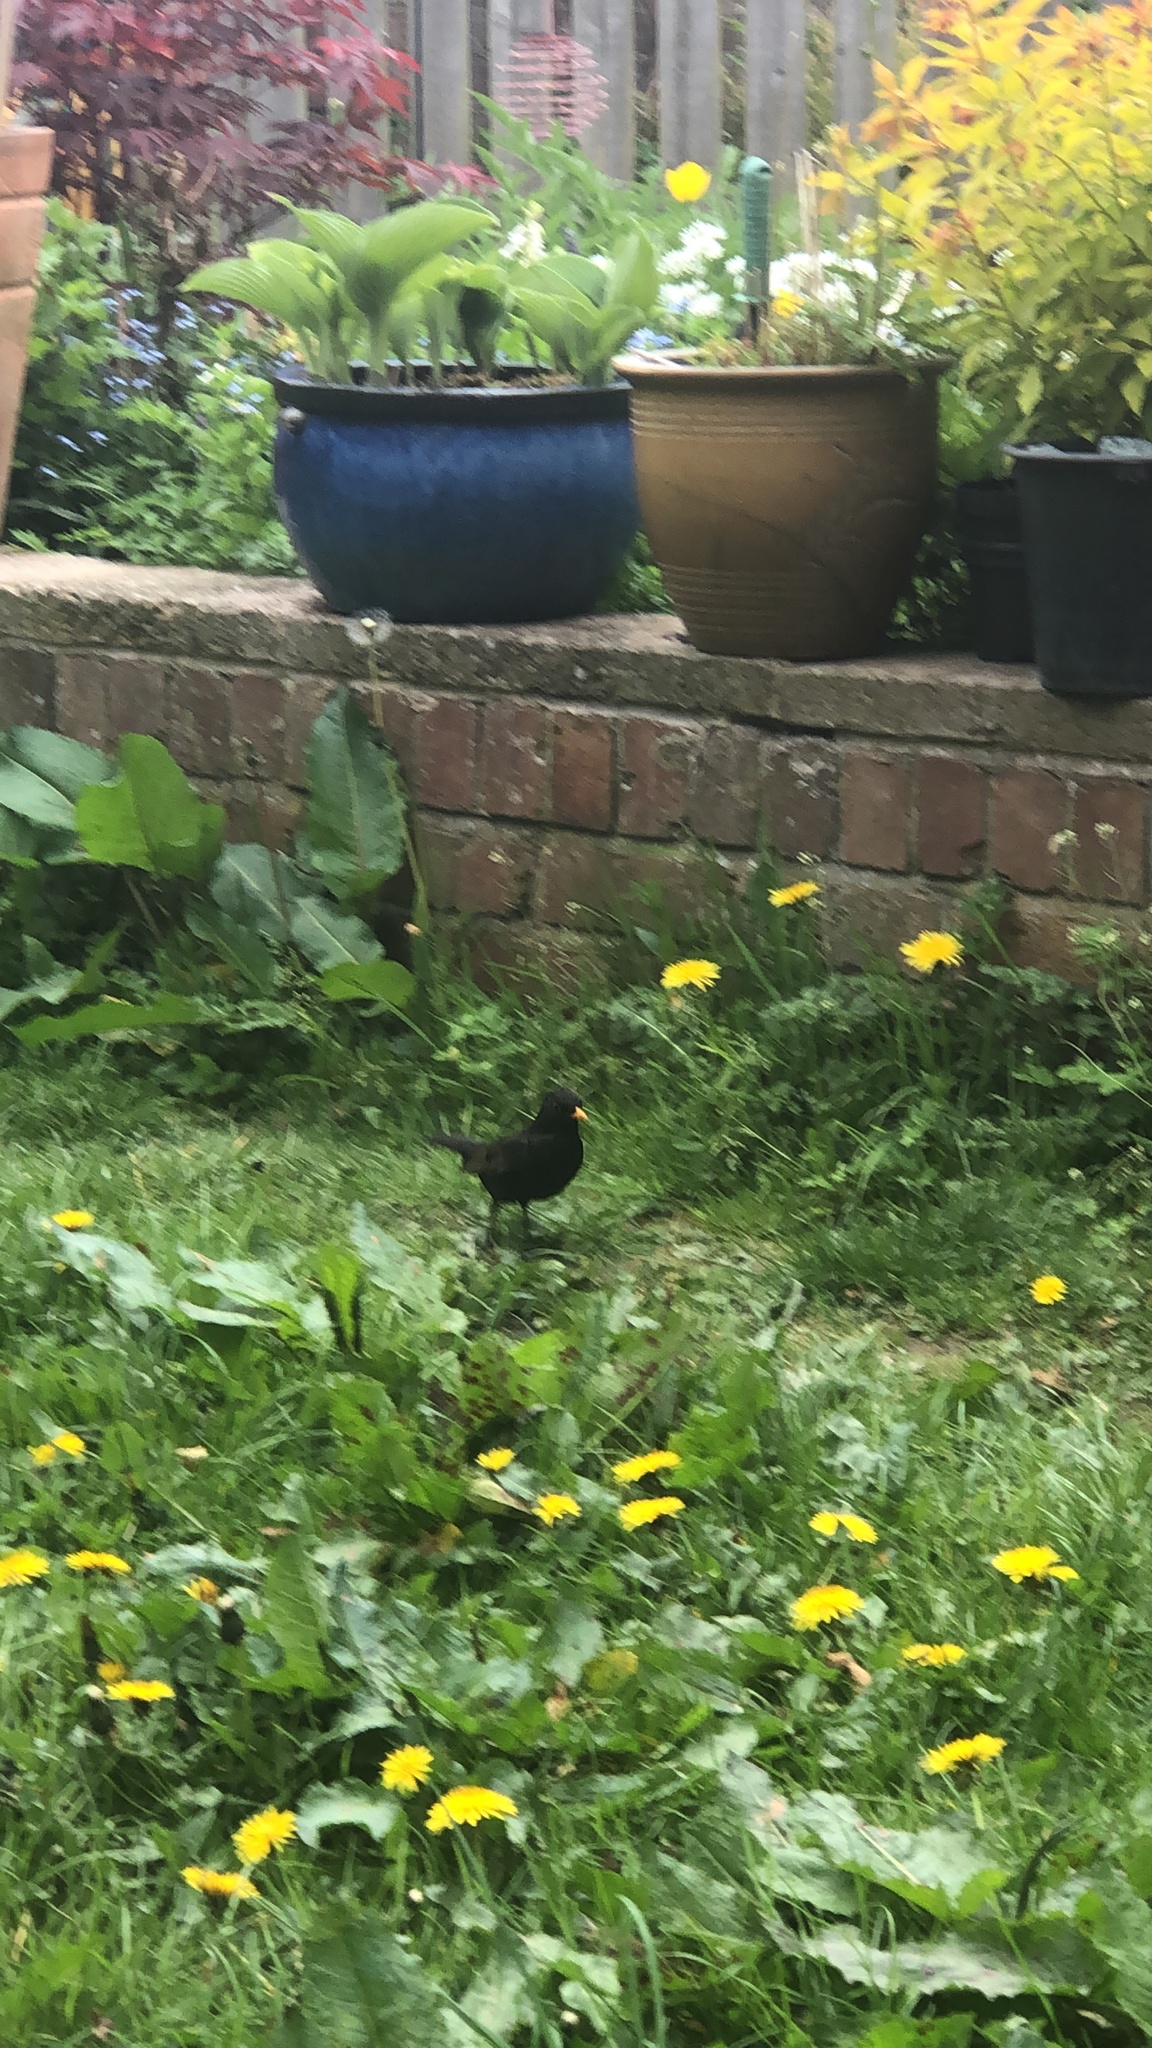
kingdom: Animalia
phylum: Chordata
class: Aves
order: Passeriformes
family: Turdidae
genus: Turdus
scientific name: Turdus merula
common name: Common blackbird
